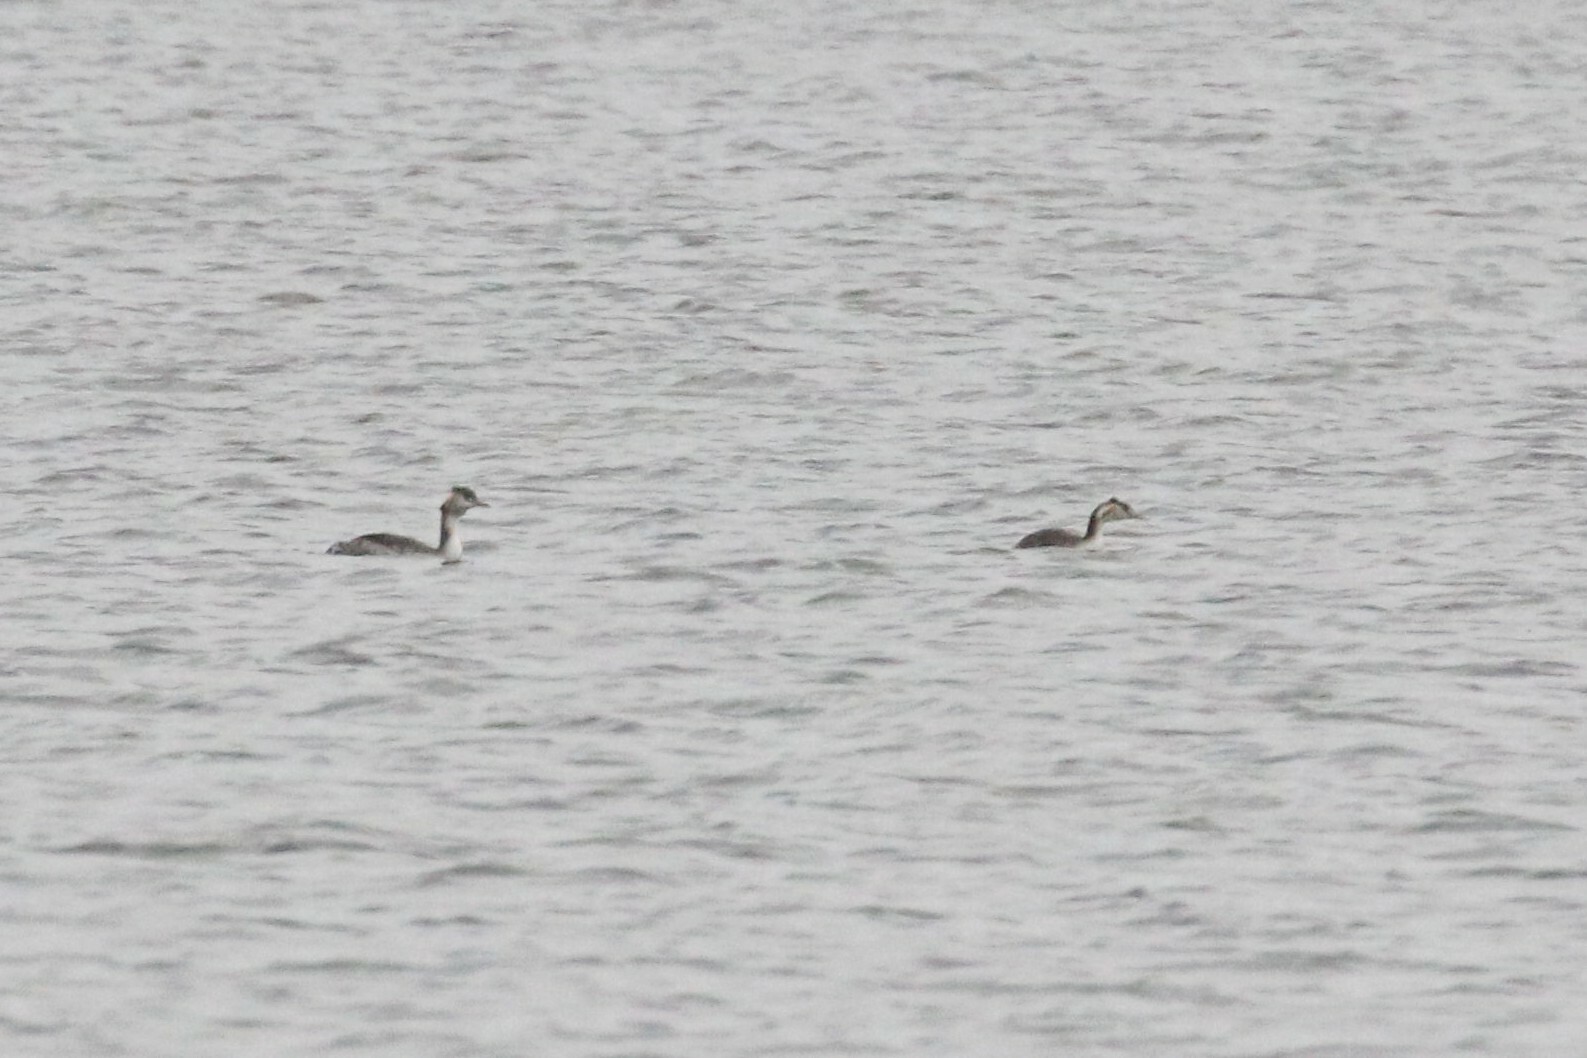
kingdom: Animalia
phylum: Chordata
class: Aves
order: Podicipediformes
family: Podicipedidae
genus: Podiceps
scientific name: Podiceps cristatus
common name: Great crested grebe
